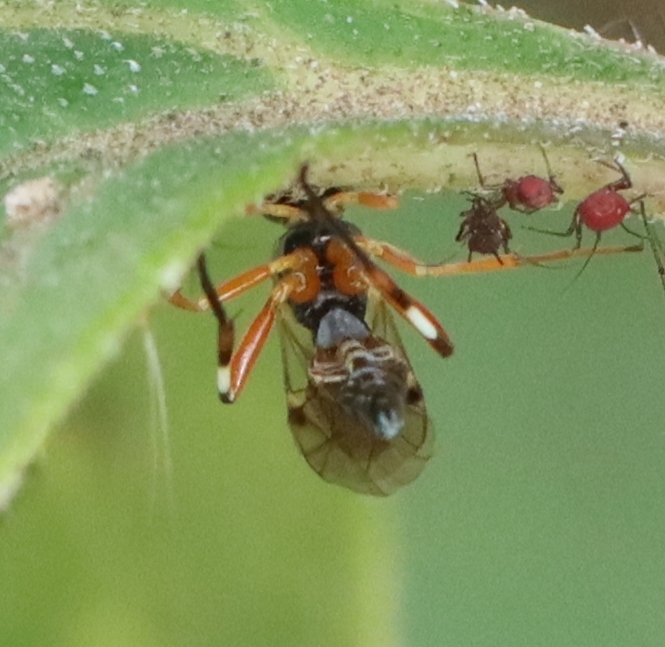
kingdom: Animalia
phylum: Arthropoda
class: Insecta
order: Hymenoptera
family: Ichneumonidae
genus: Diplazon
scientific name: Diplazon laetatorius
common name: Parasitoid wasp
